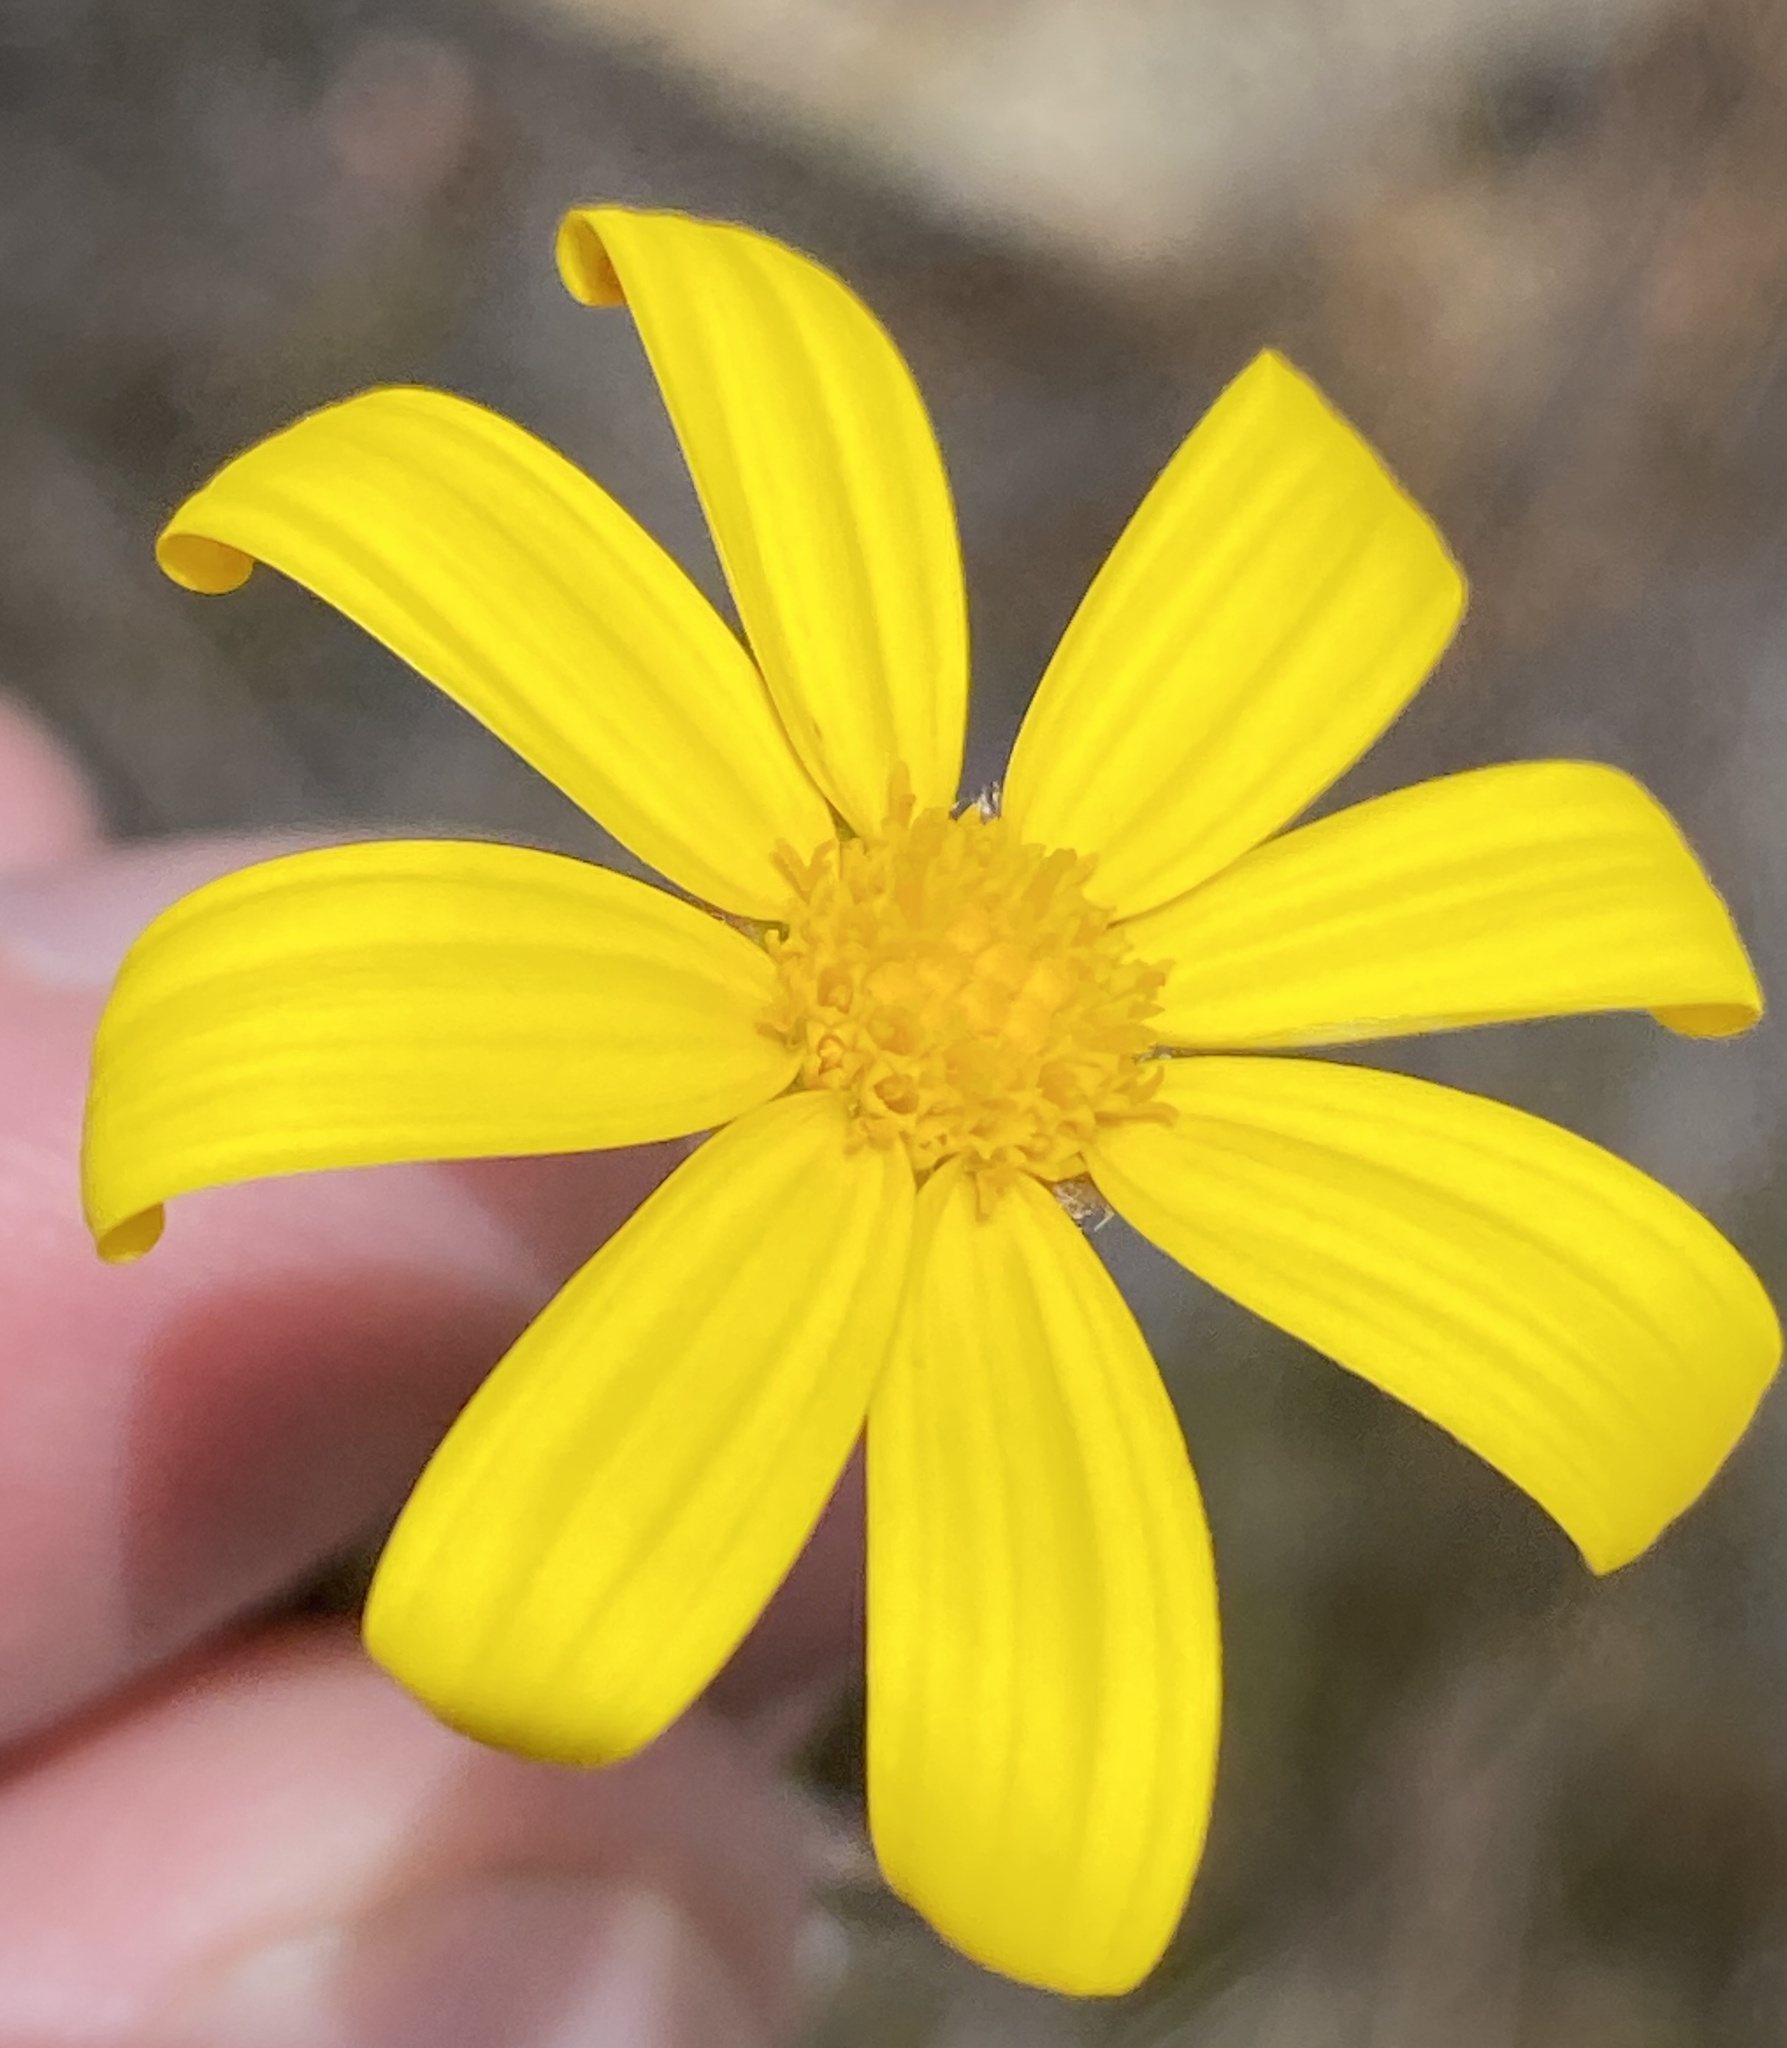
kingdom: Plantae
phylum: Tracheophyta
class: Magnoliopsida
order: Asterales
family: Asteraceae
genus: Osteospermum
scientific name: Osteospermum polygaloides
